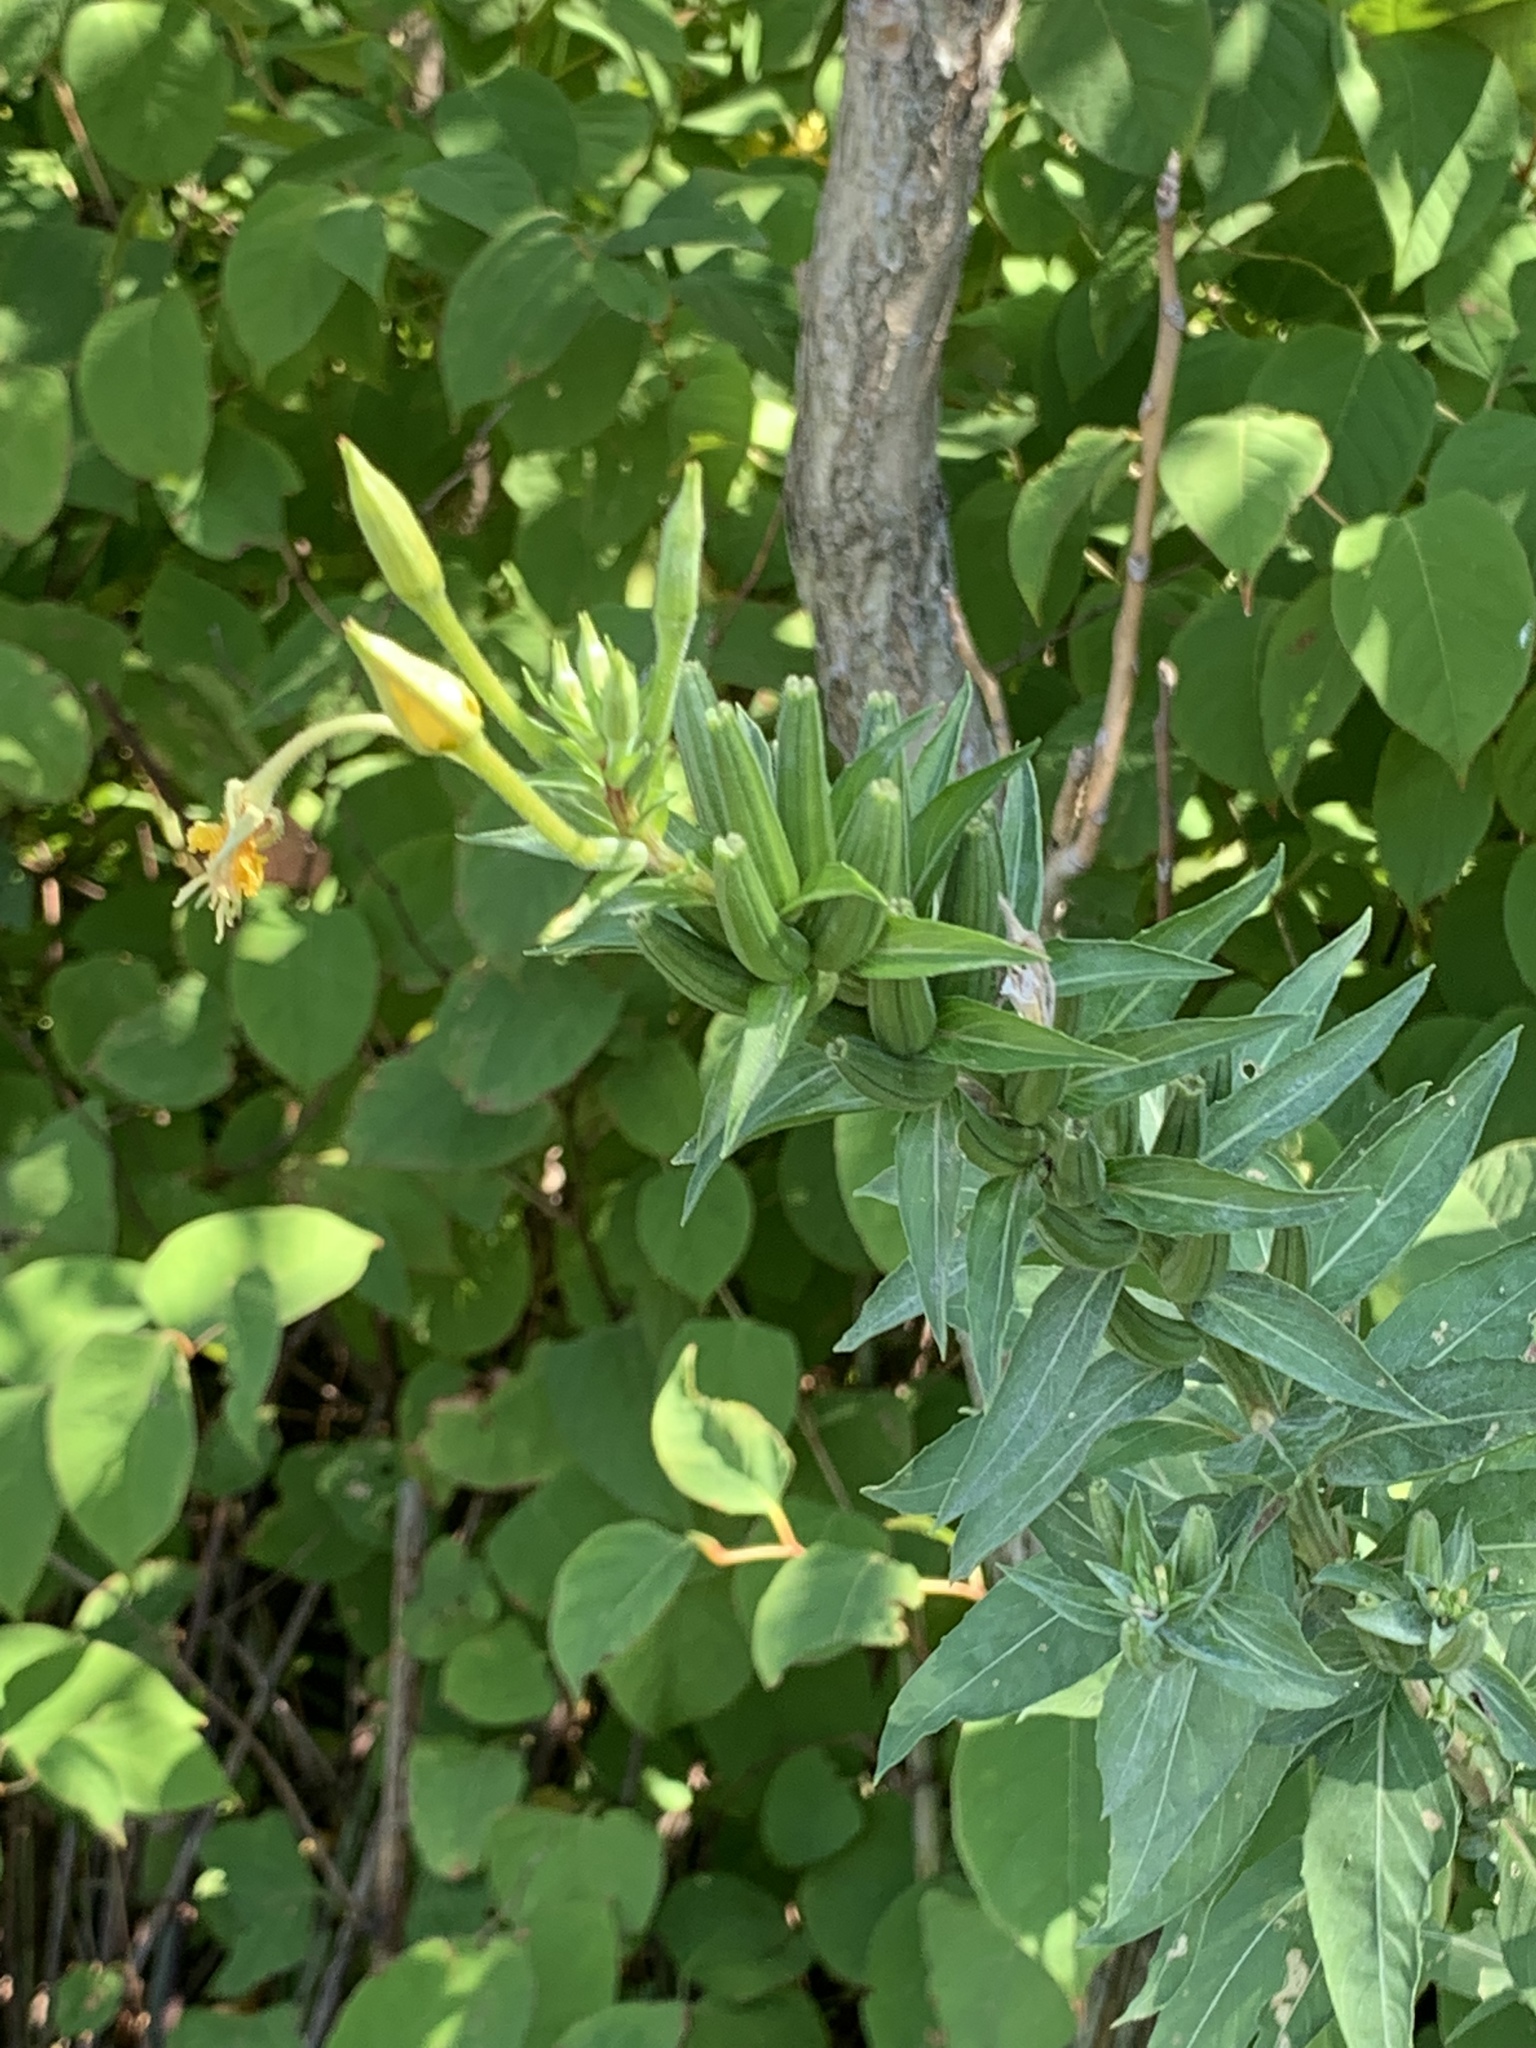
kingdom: Plantae
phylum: Tracheophyta
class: Magnoliopsida
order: Myrtales
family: Onagraceae
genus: Oenothera
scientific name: Oenothera biennis
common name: Common evening-primrose
